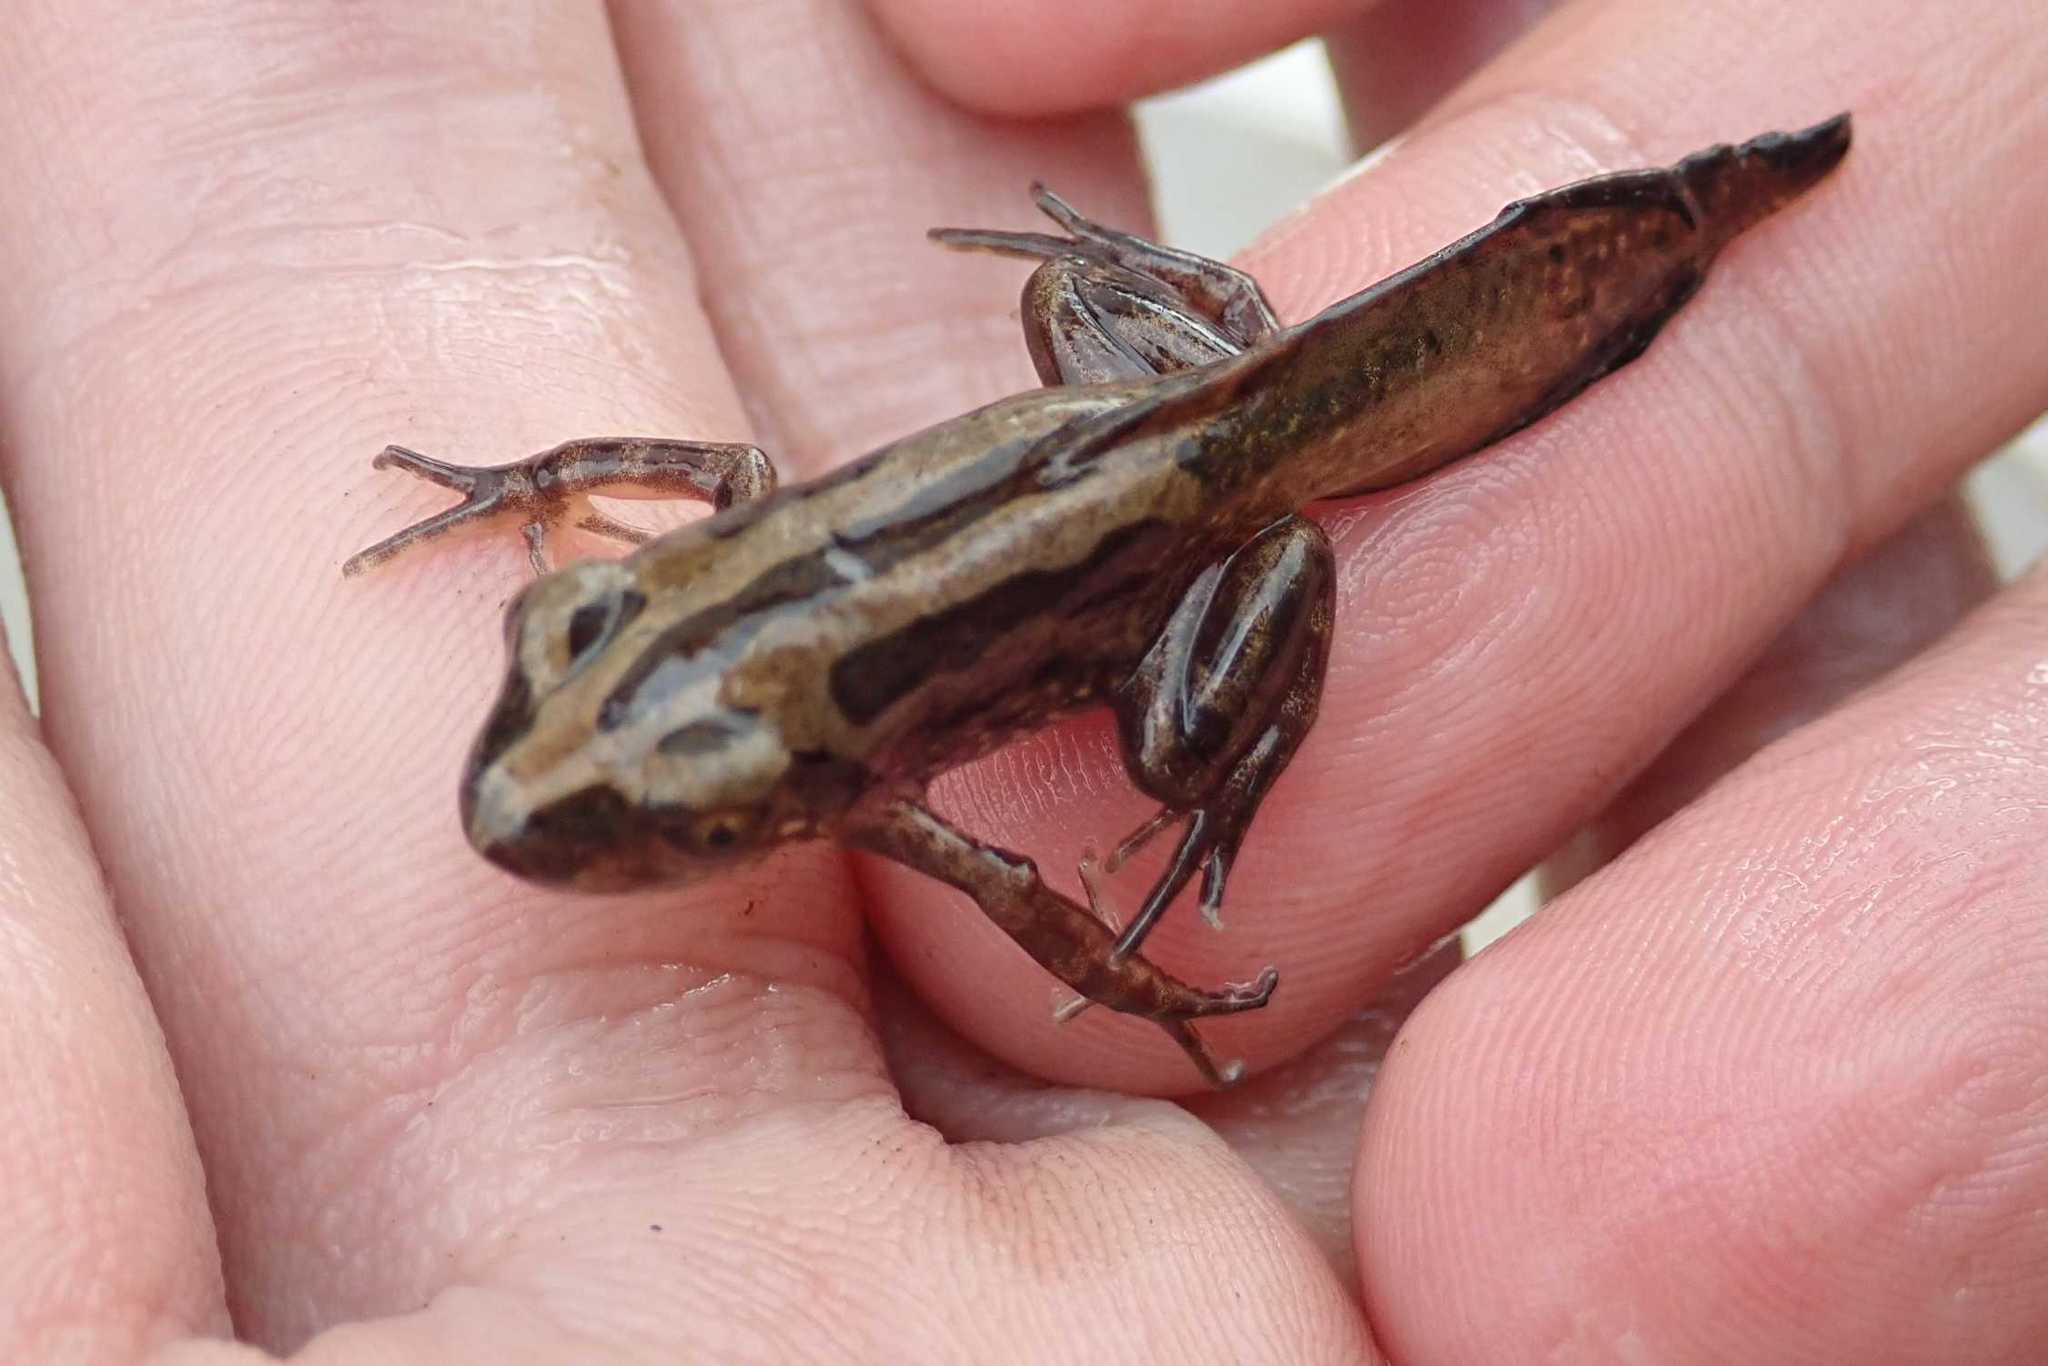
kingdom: Animalia
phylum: Chordata
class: Amphibia
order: Anura
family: Hyperoliidae
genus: Kassina
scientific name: Kassina senegalensis
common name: Senegal land frog
